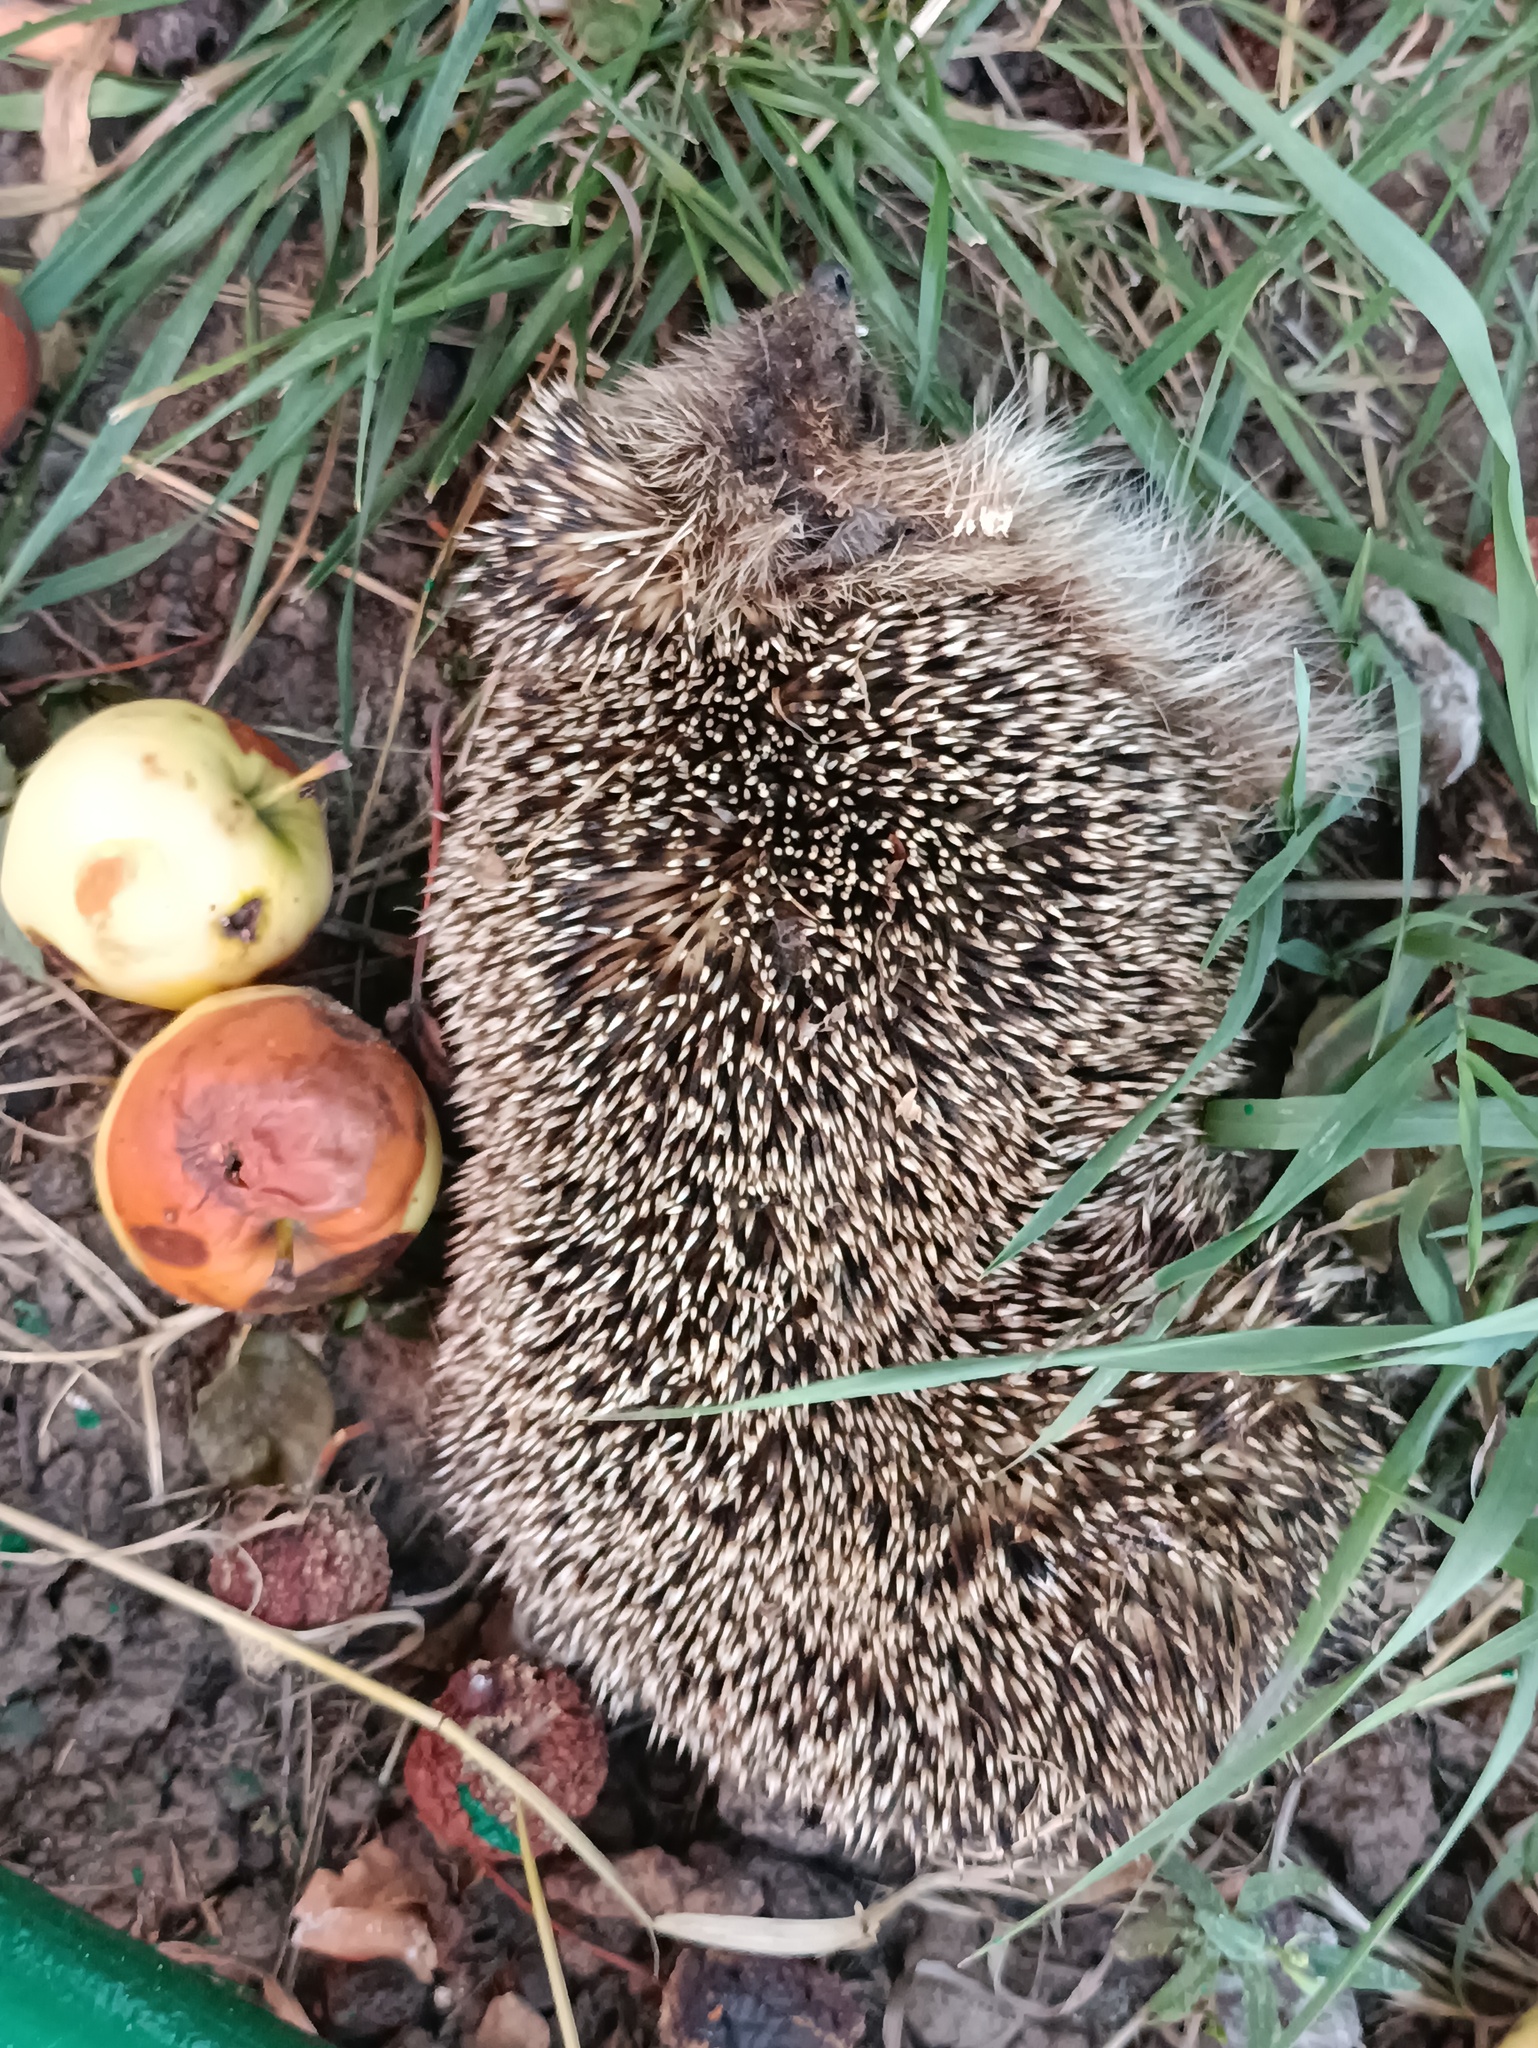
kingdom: Animalia
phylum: Chordata
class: Mammalia
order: Erinaceomorpha
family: Erinaceidae
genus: Erinaceus
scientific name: Erinaceus roumanicus
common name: Northern white-breasted hedgehog
